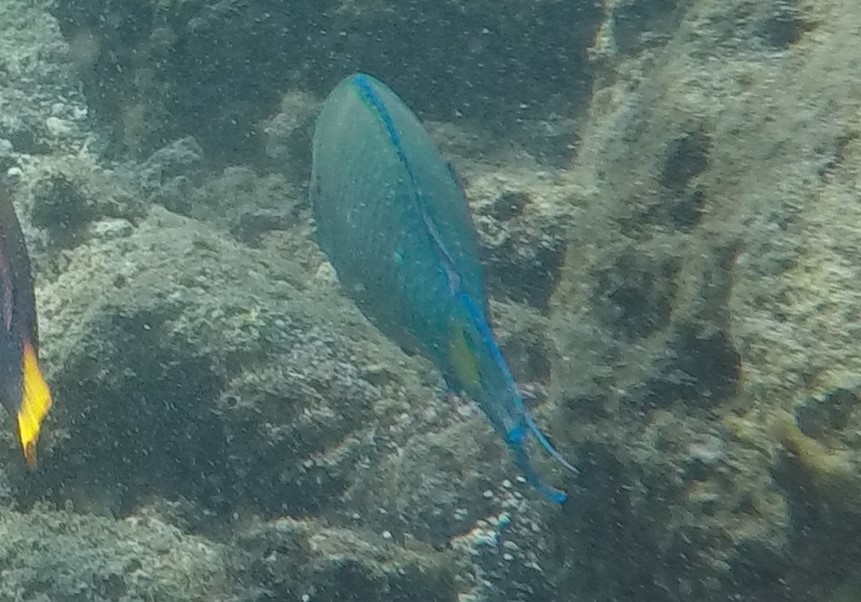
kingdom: Animalia
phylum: Chordata
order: Perciformes
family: Scaridae
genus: Scarus
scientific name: Scarus psittacus
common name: Palenose parrotfish
